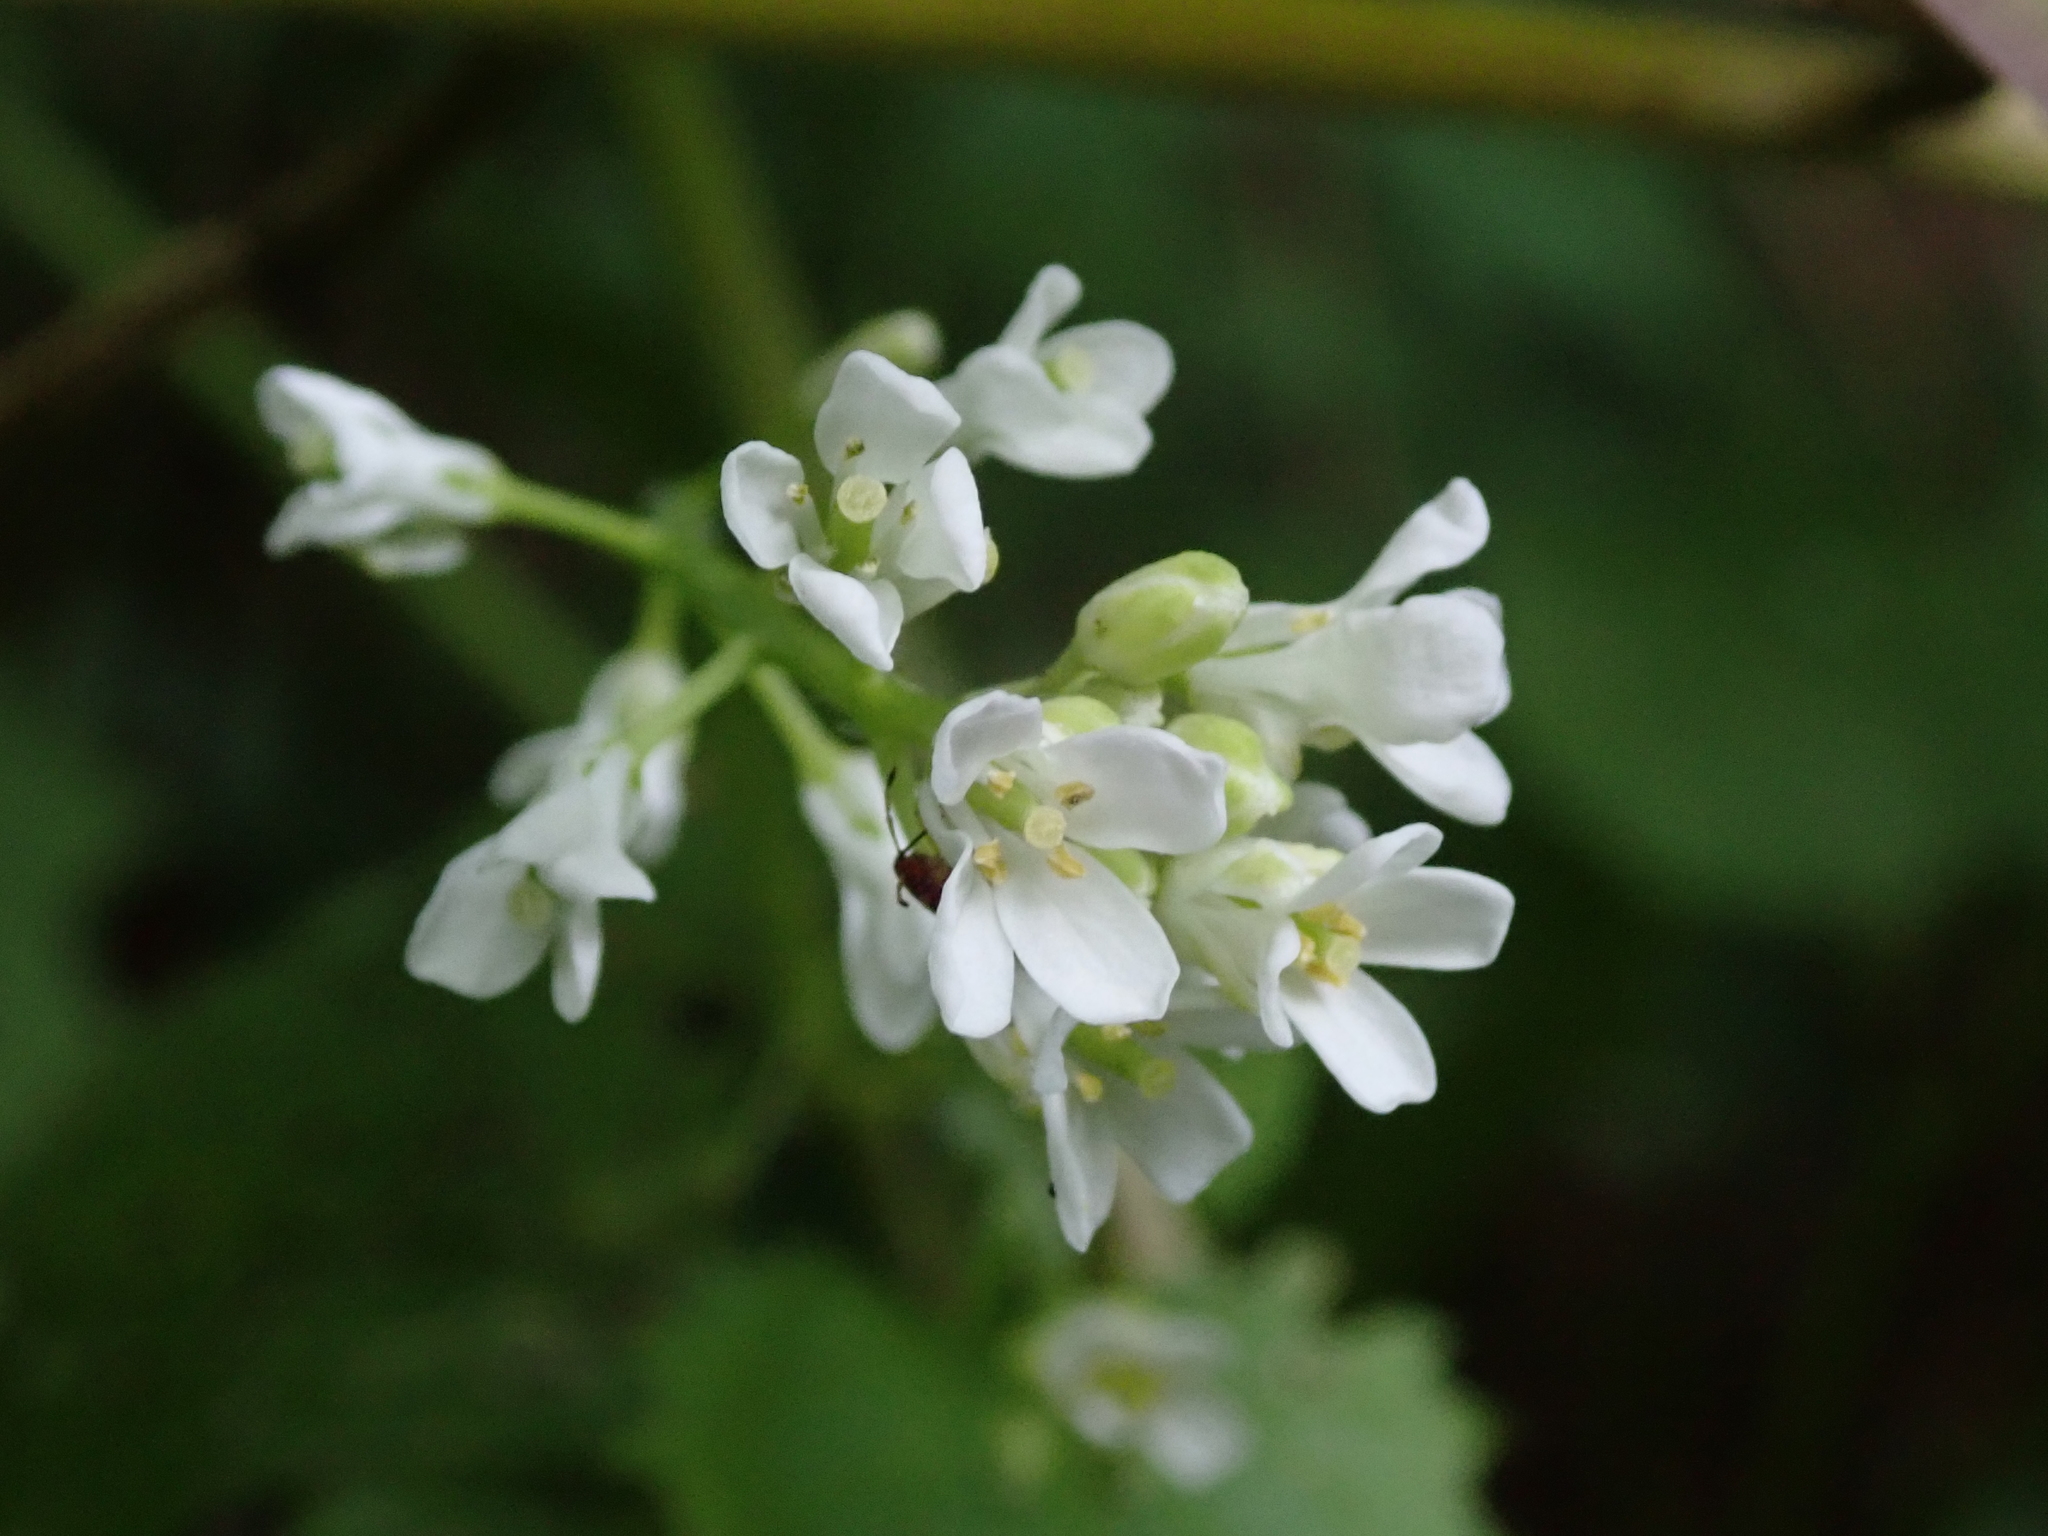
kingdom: Plantae
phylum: Tracheophyta
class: Magnoliopsida
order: Brassicales
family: Brassicaceae
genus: Alliaria
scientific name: Alliaria petiolata
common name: Garlic mustard
